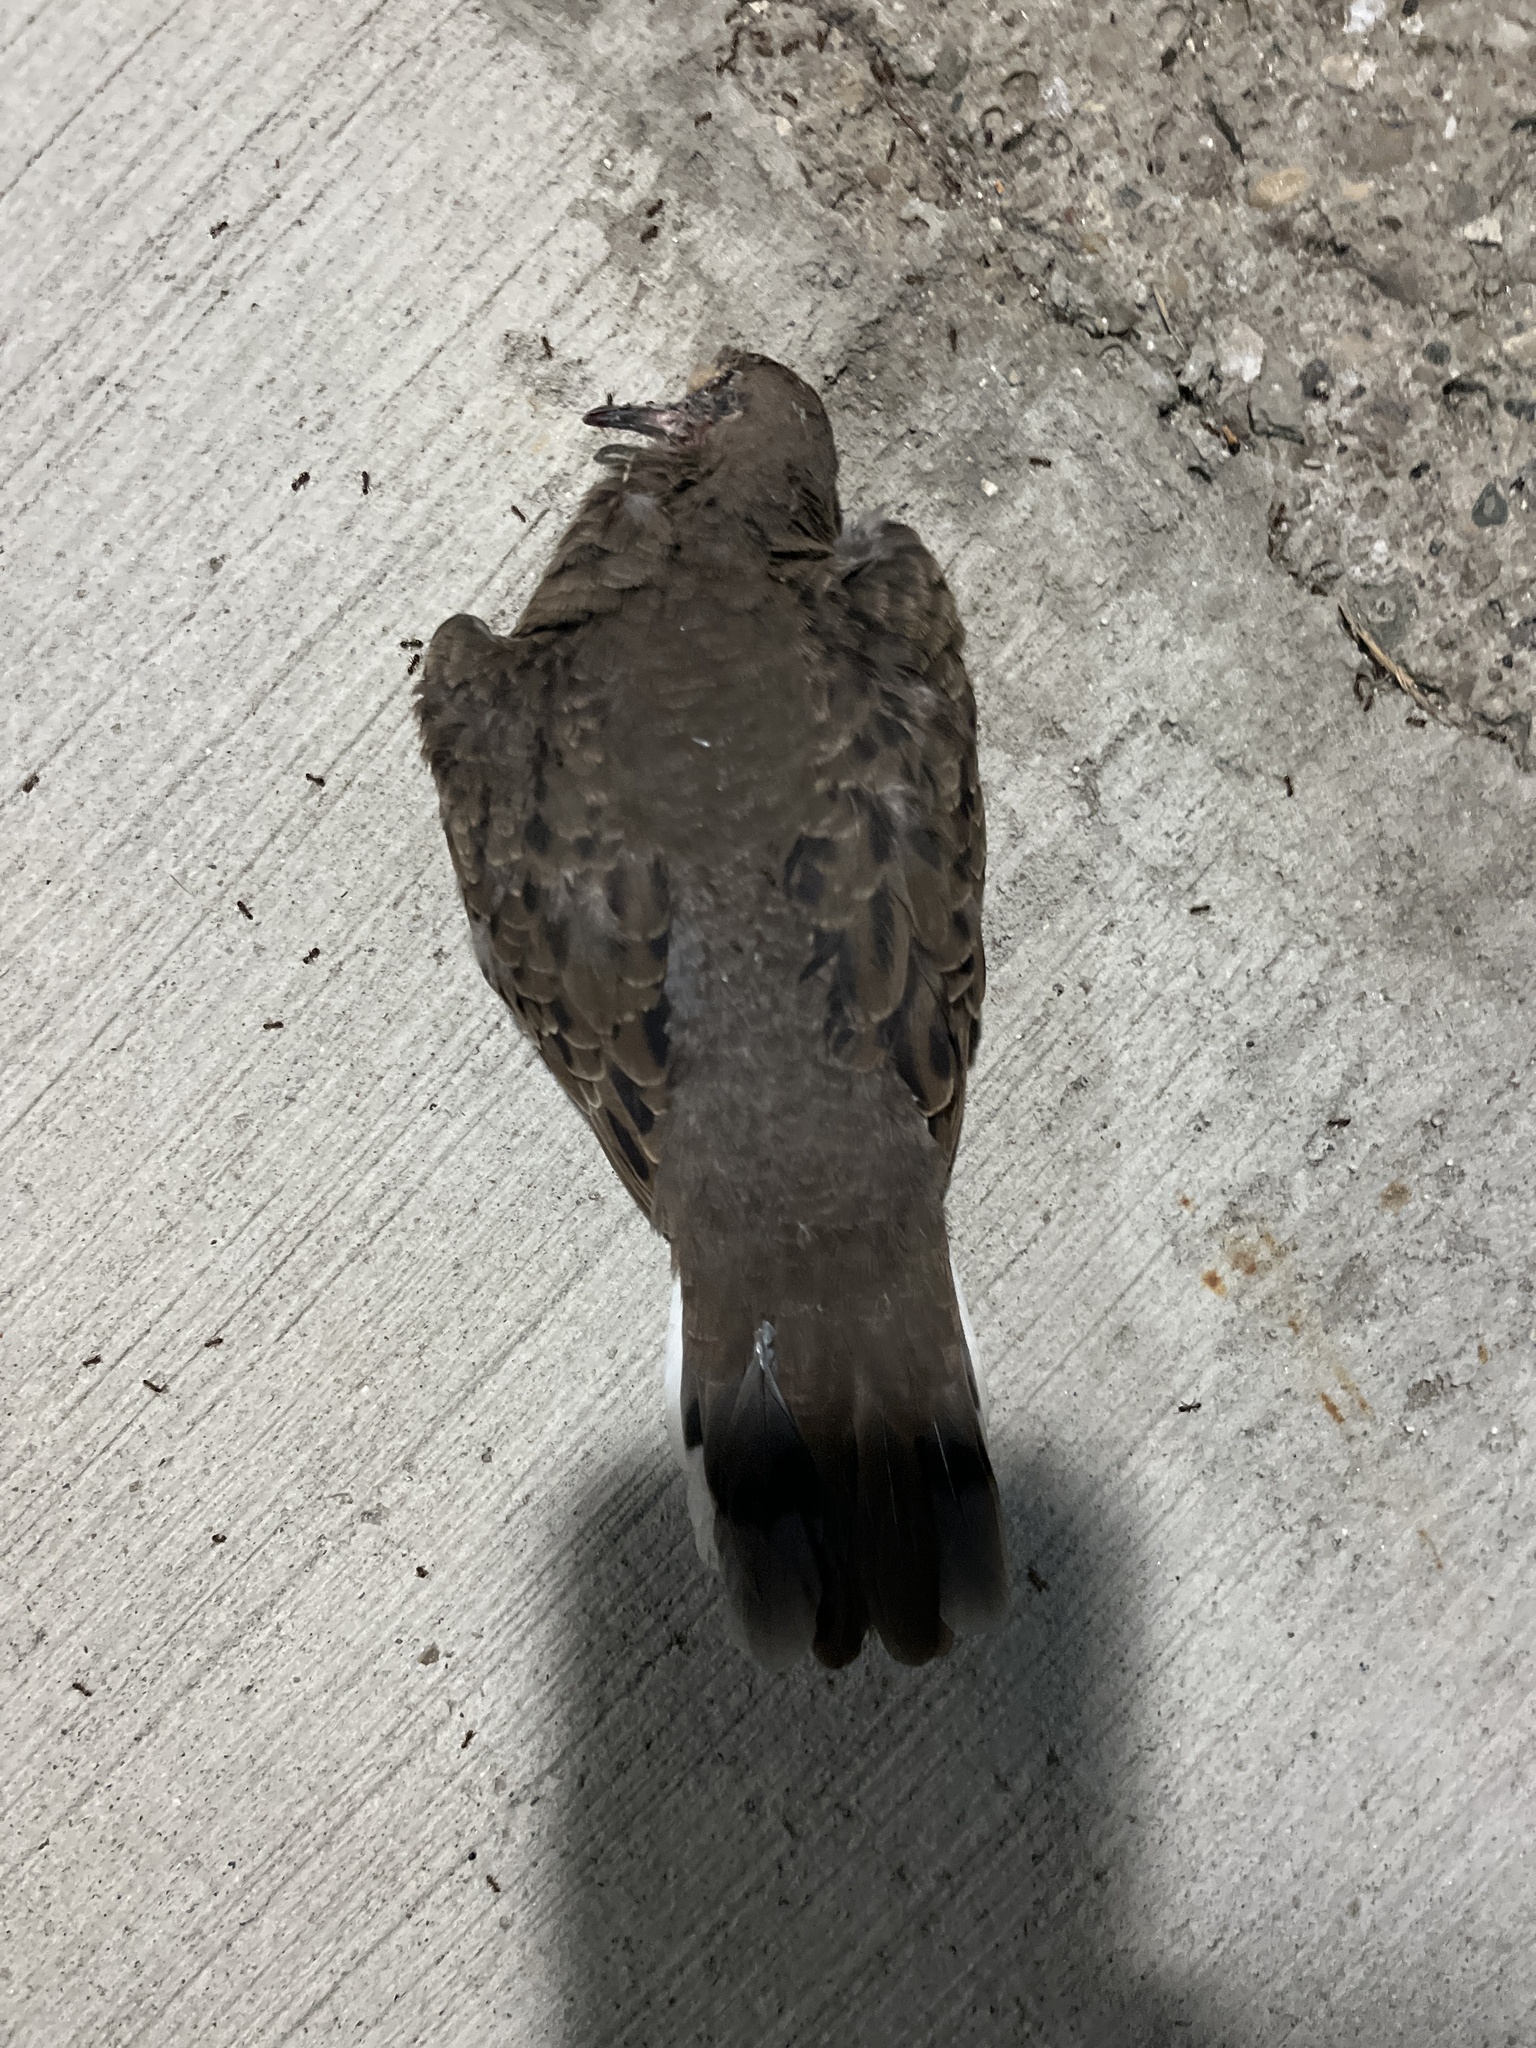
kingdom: Animalia
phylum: Chordata
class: Aves
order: Columbiformes
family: Columbidae
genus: Zenaida
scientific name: Zenaida macroura
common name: Mourning dove
